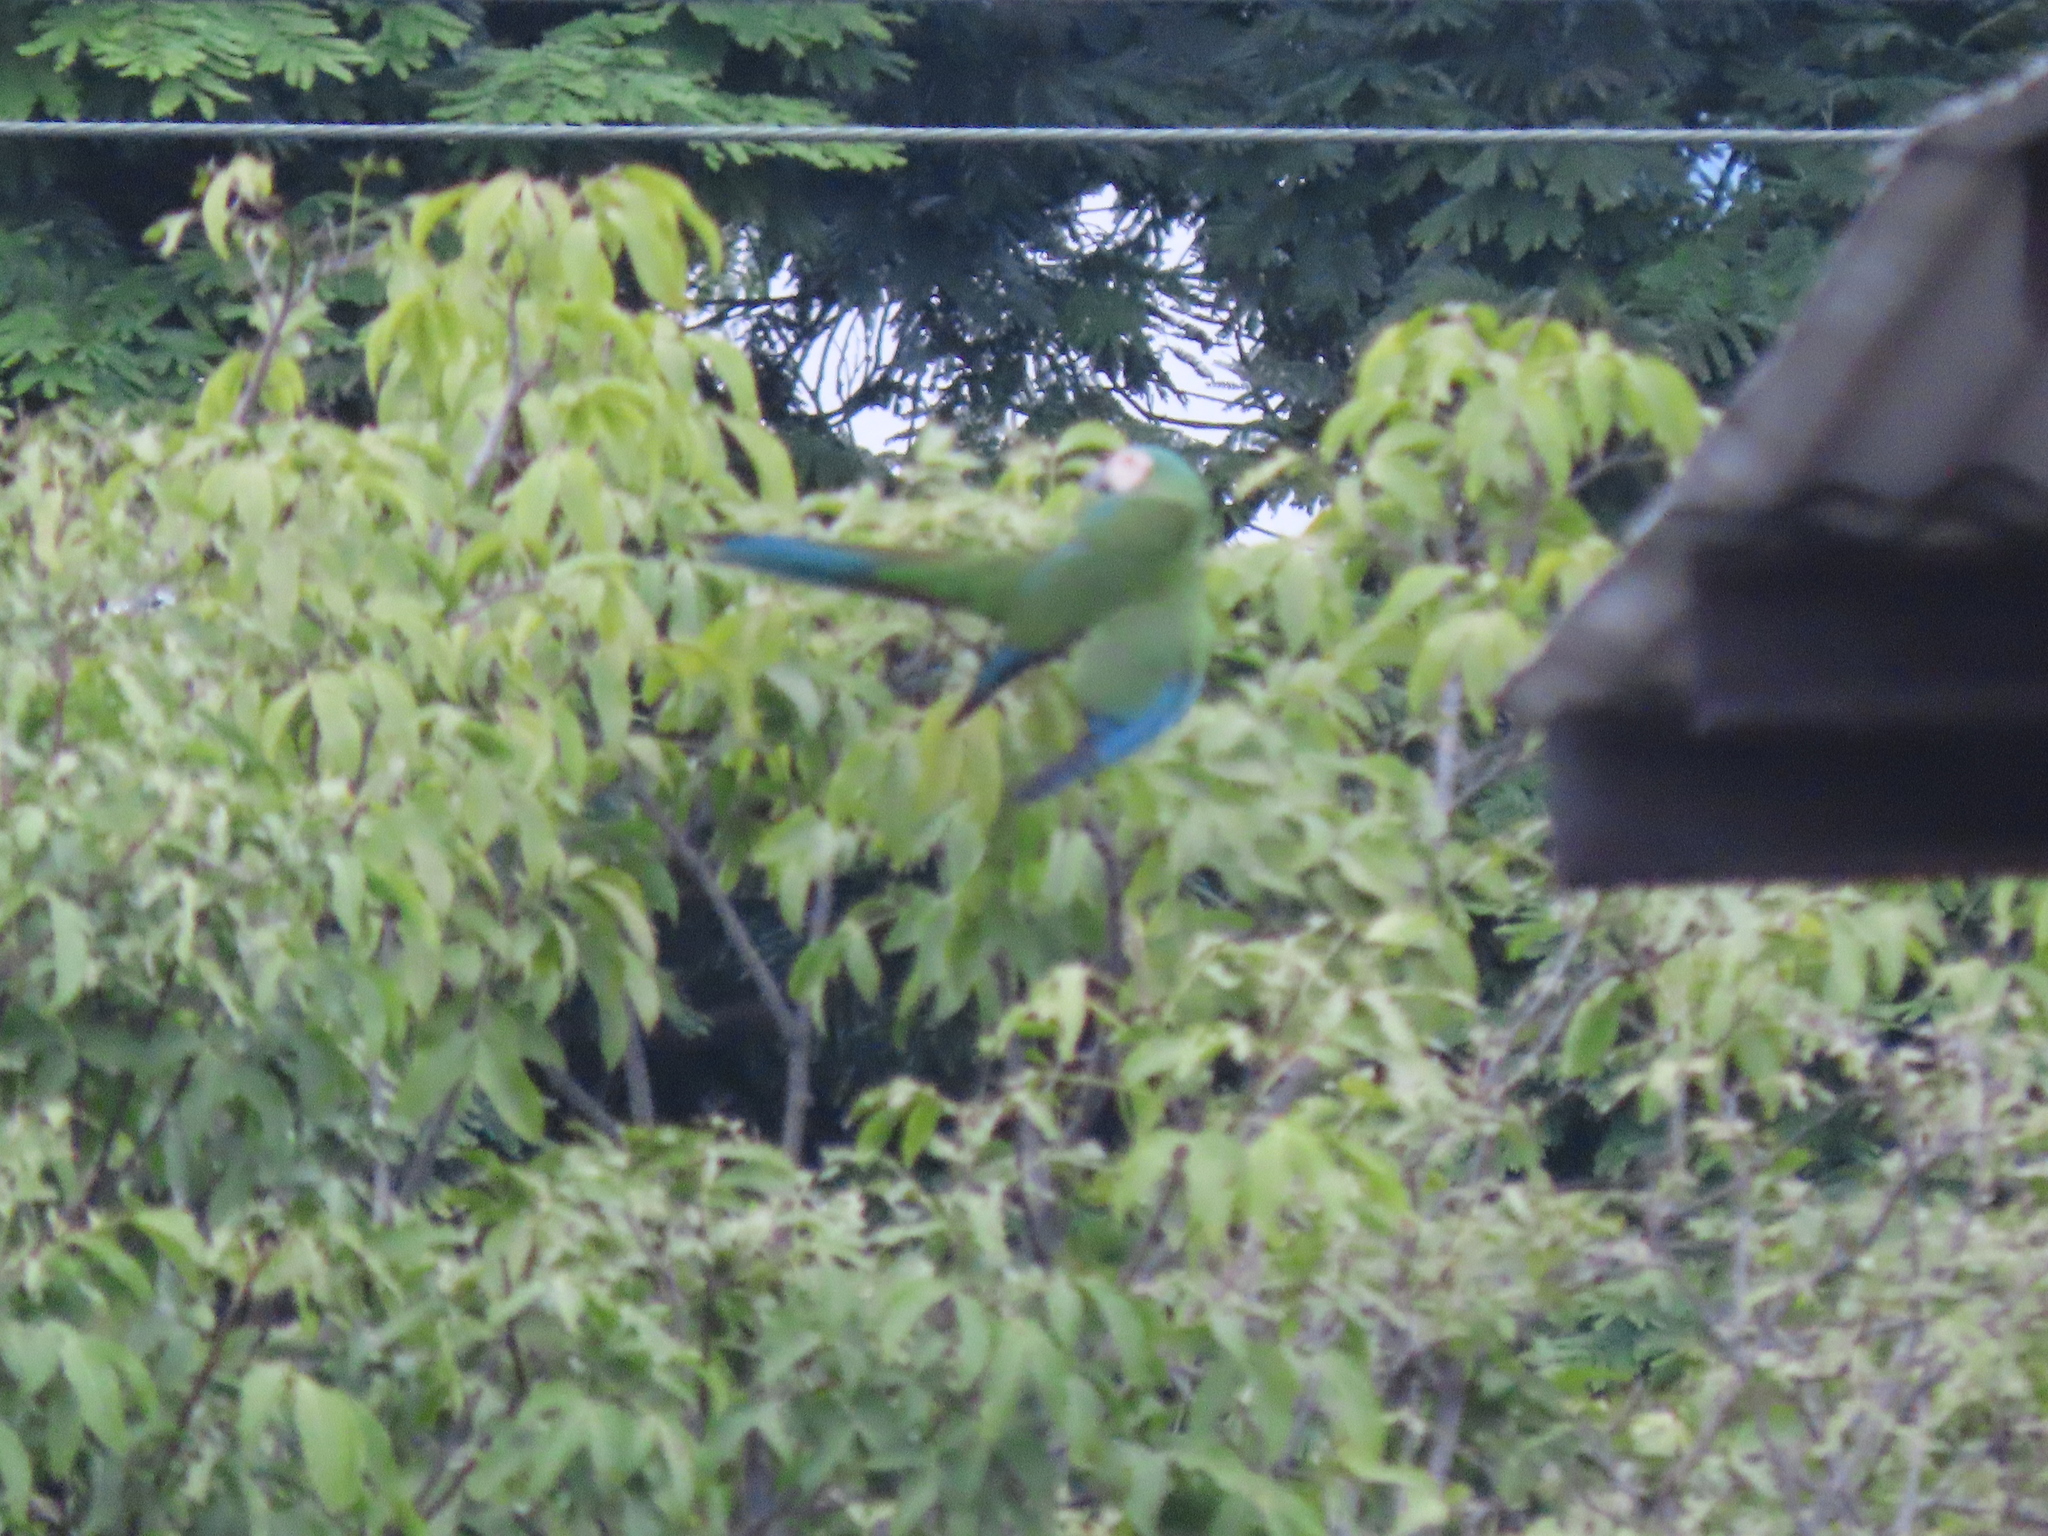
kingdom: Animalia
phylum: Chordata
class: Aves
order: Psittaciformes
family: Psittacidae
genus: Ara
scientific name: Ara severus
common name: Chestnut-fronted macaw
